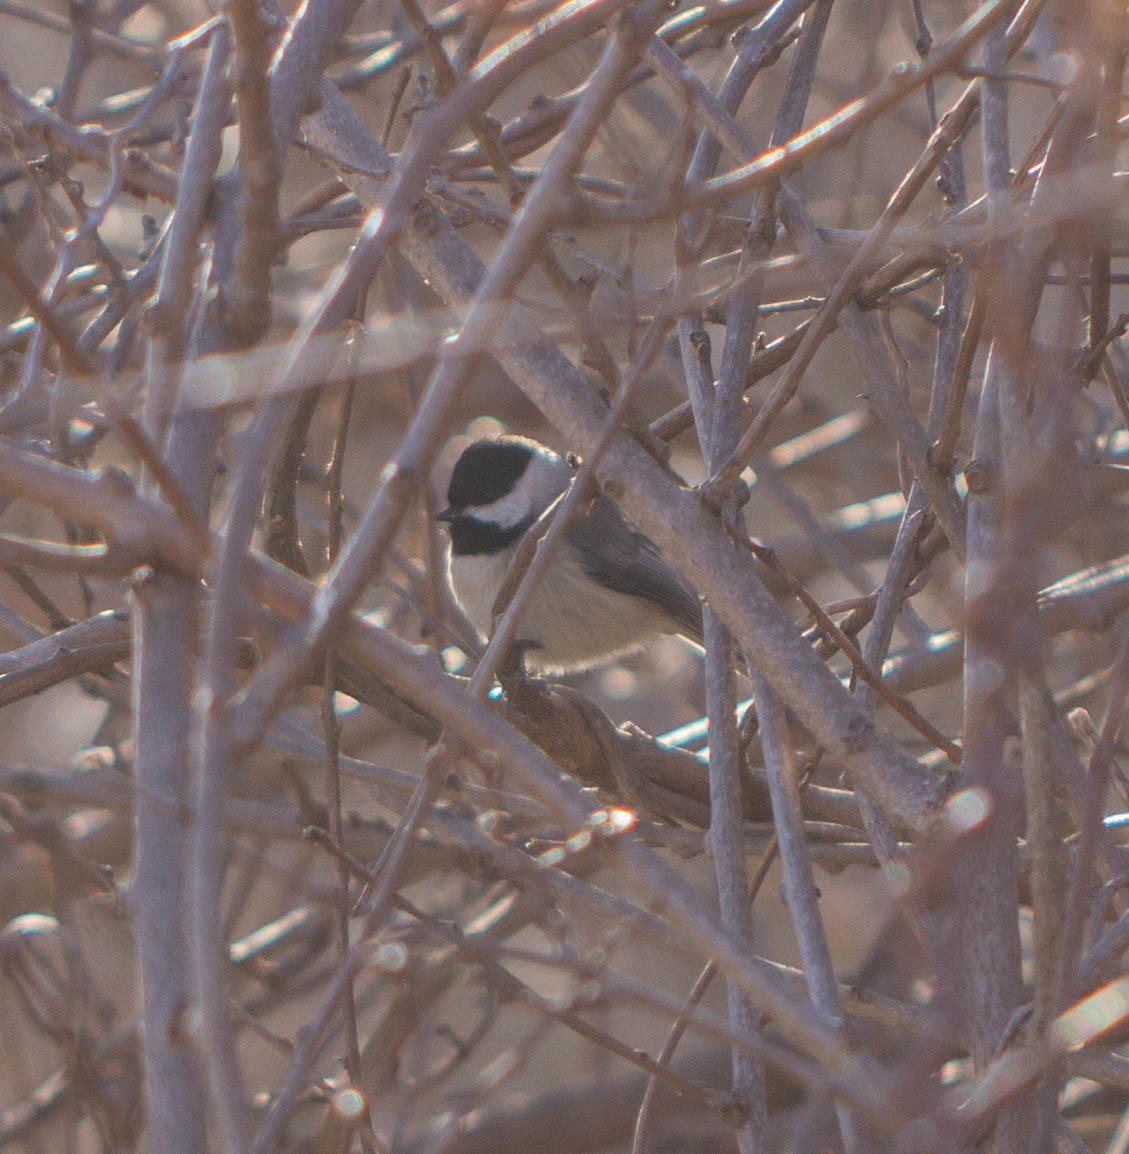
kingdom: Animalia
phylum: Chordata
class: Aves
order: Passeriformes
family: Paridae
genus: Poecile
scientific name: Poecile carolinensis
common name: Carolina chickadee
